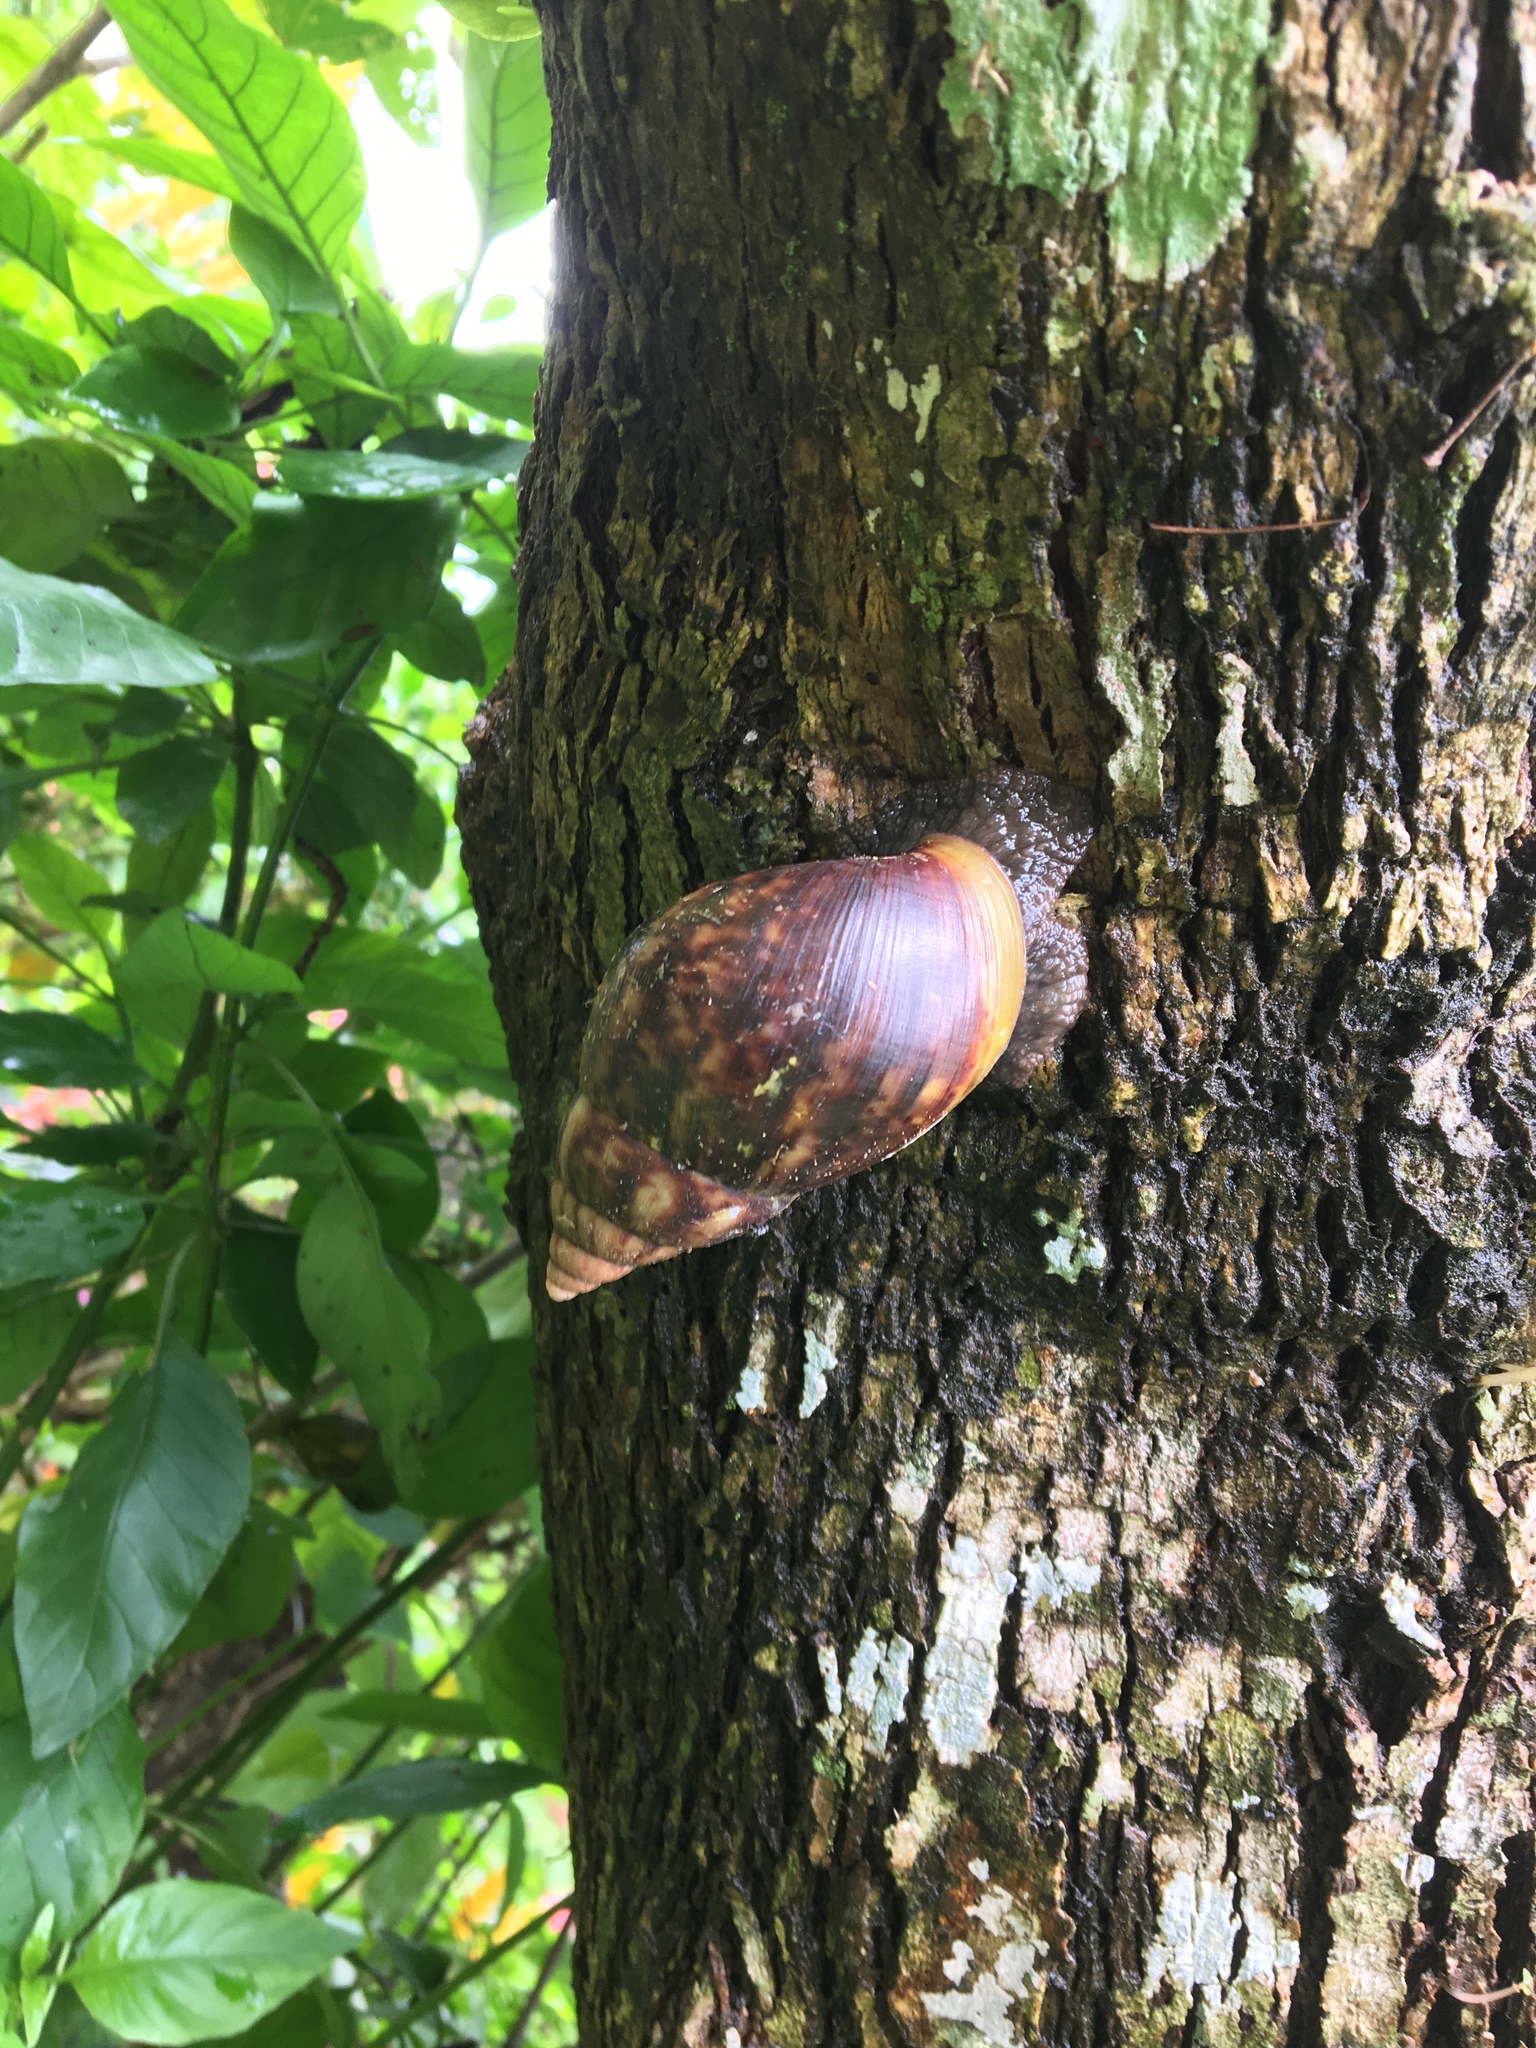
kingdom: Animalia
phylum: Mollusca
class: Gastropoda
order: Stylommatophora
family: Achatinidae
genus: Lissachatina
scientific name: Lissachatina fulica
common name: Giant african snail
